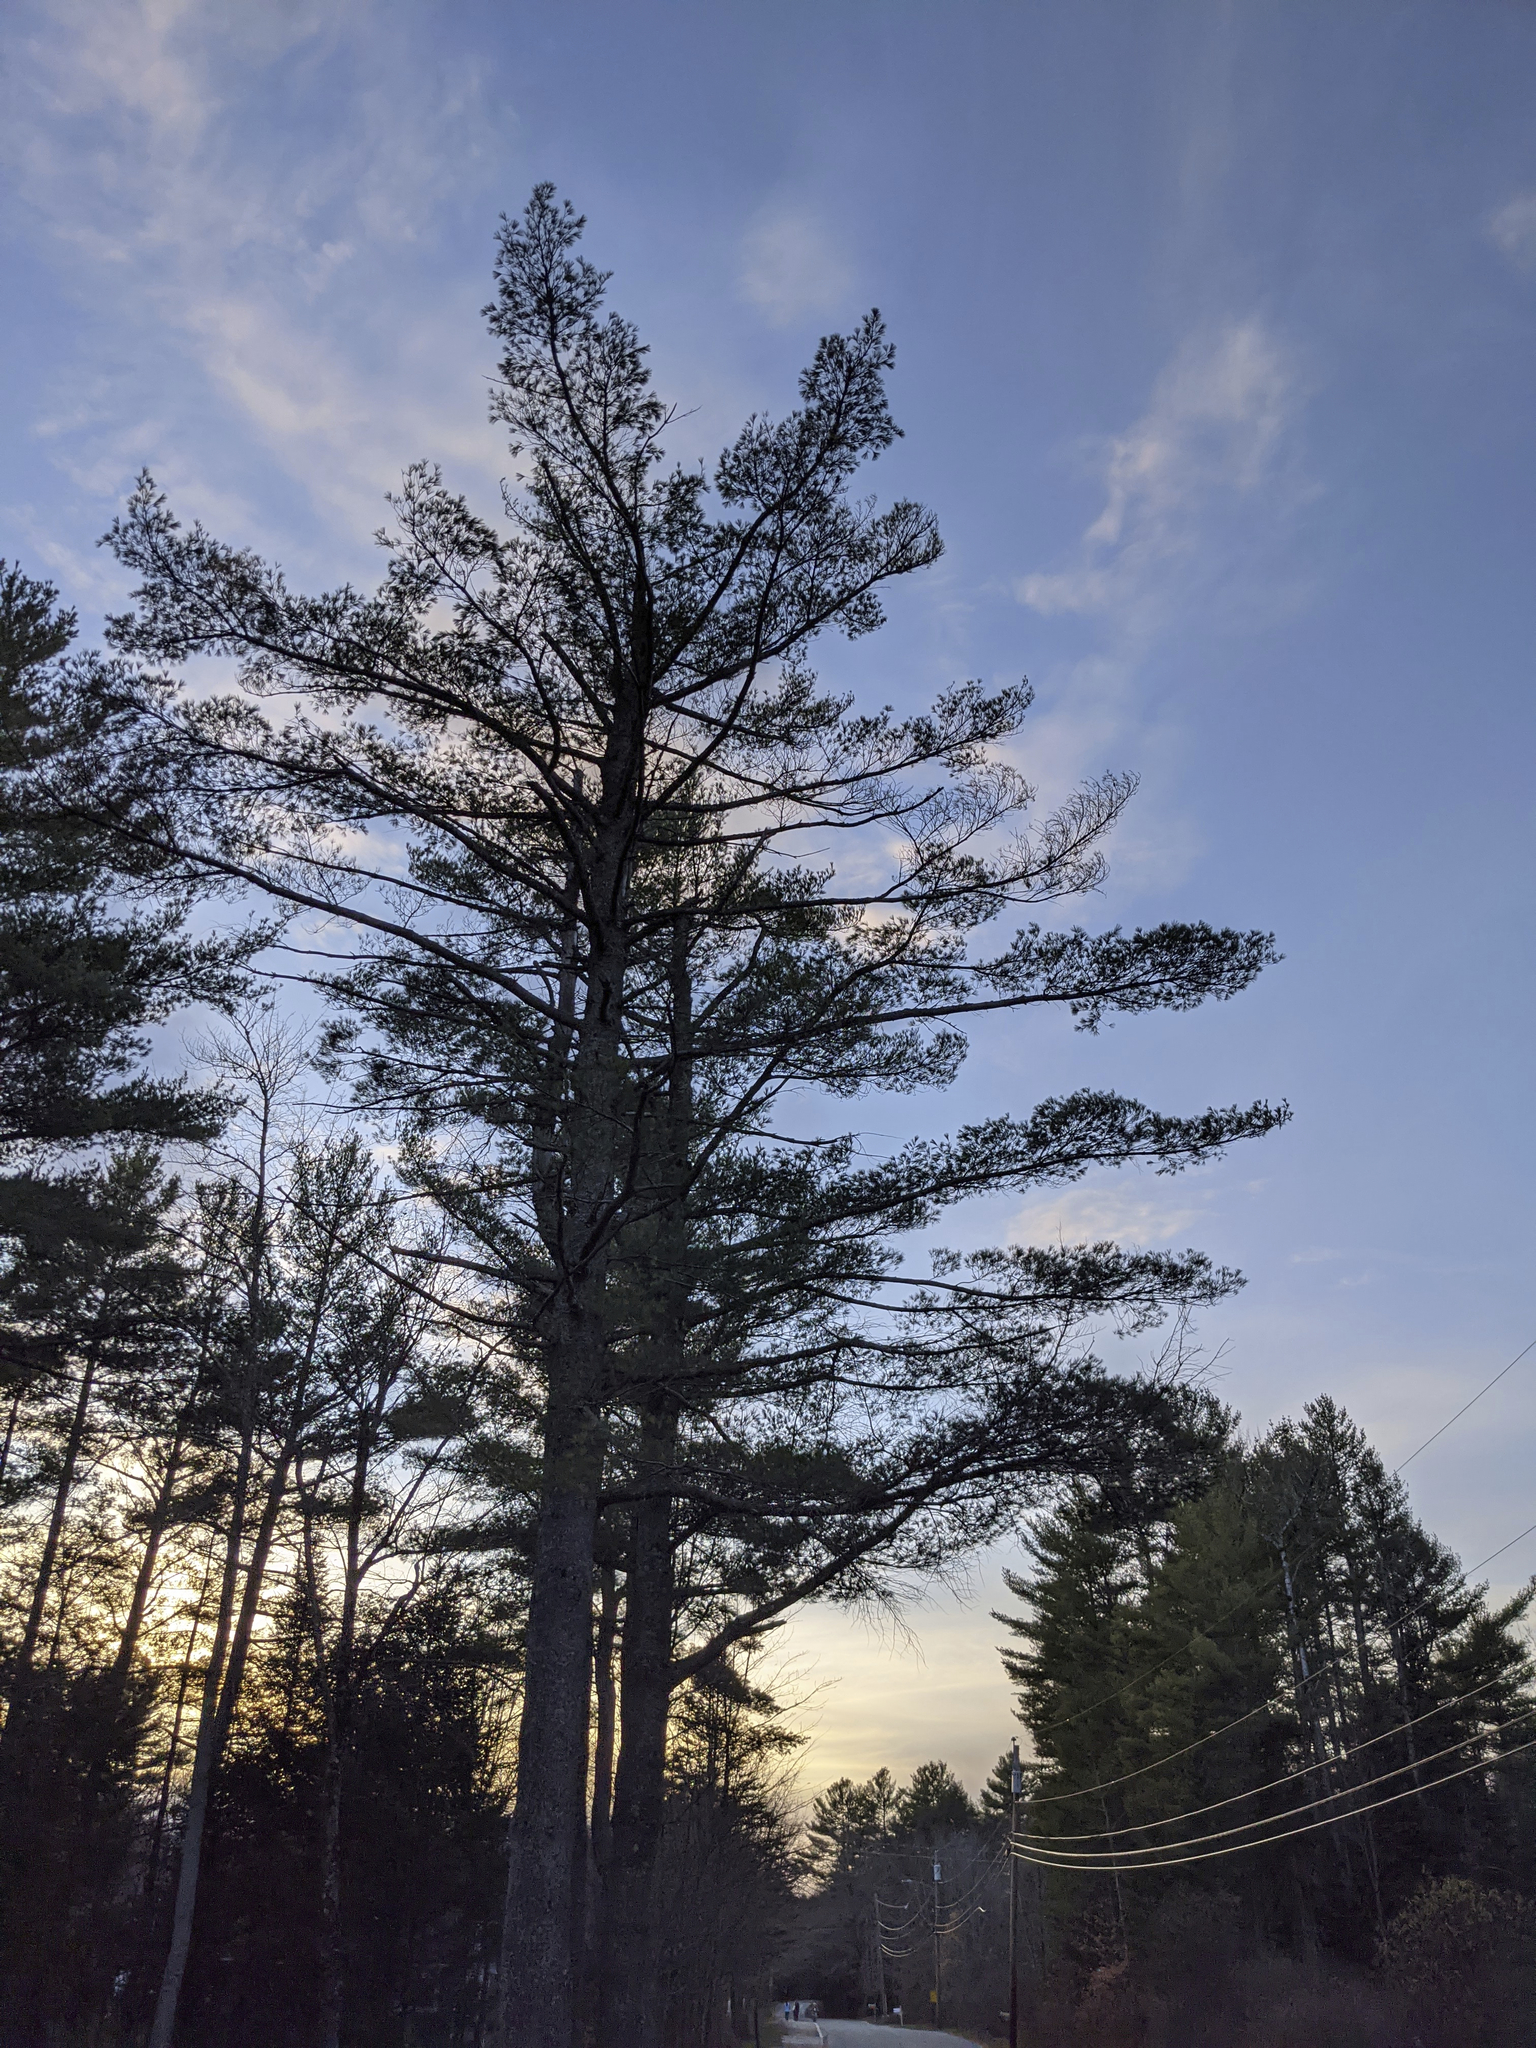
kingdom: Plantae
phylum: Tracheophyta
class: Pinopsida
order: Pinales
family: Pinaceae
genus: Pinus
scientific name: Pinus strobus
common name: Weymouth pine
